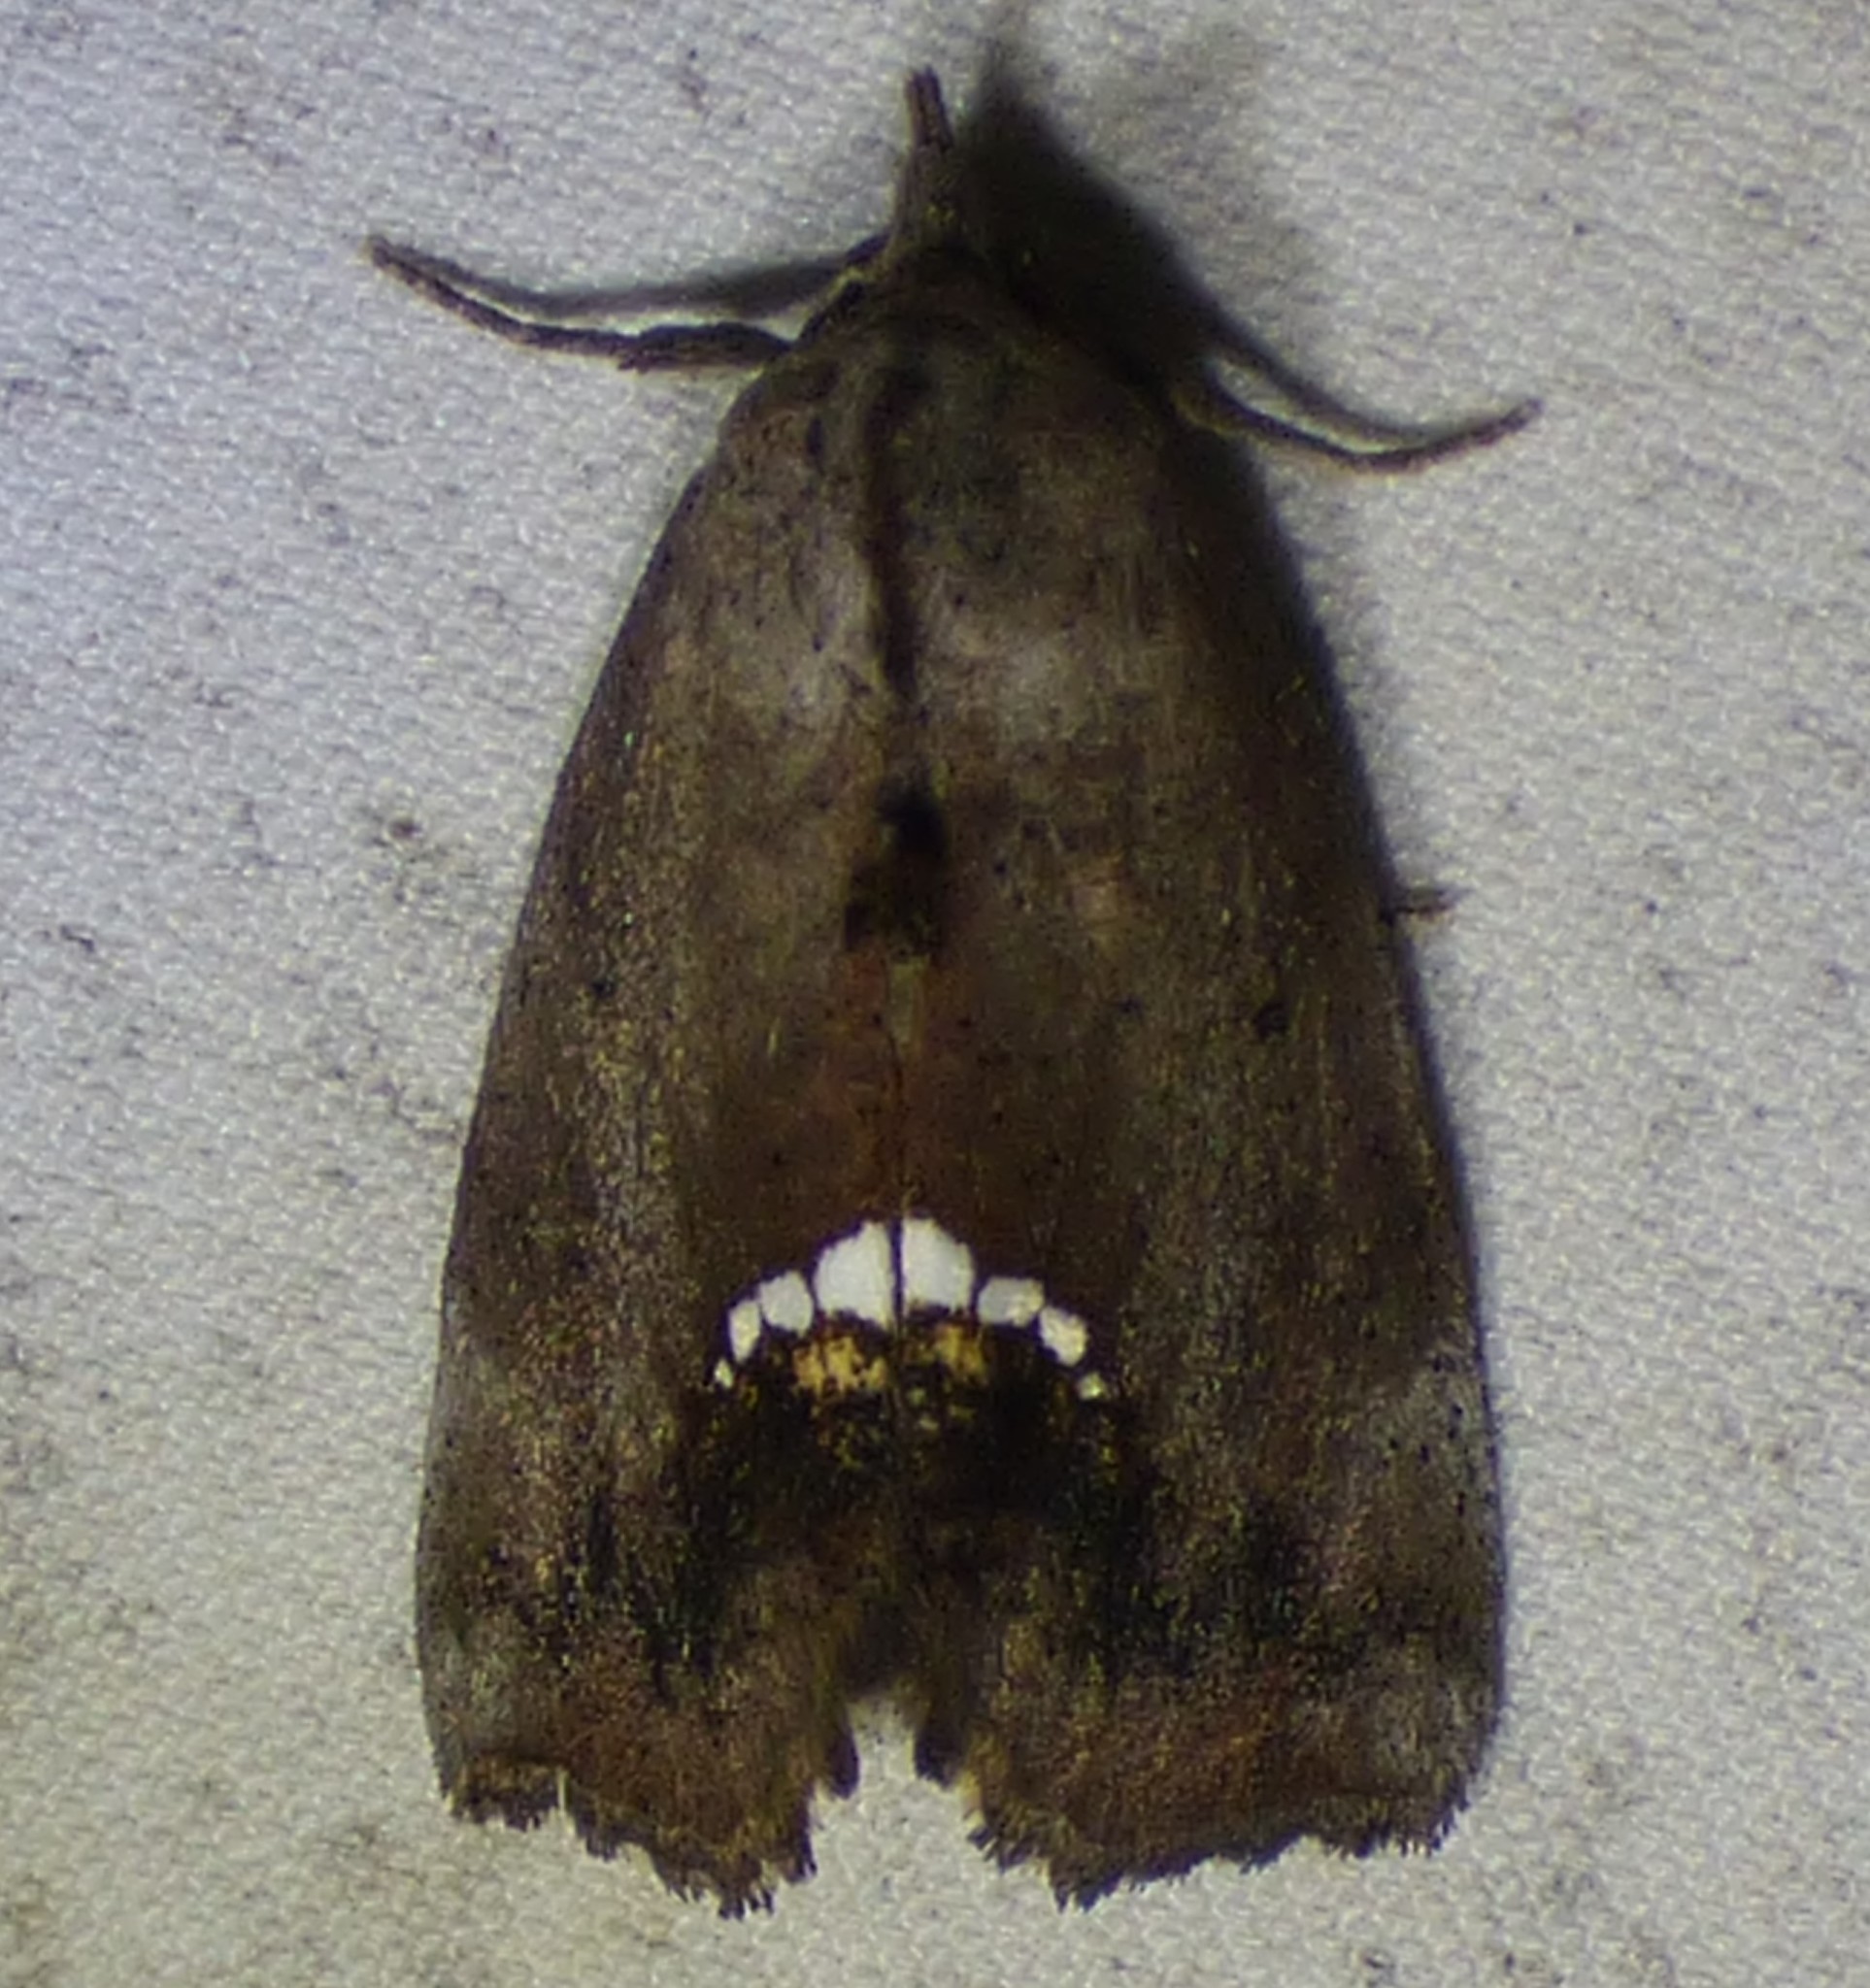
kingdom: Animalia
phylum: Arthropoda
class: Insecta
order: Lepidoptera
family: Erebidae
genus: Hypsoropha
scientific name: Hypsoropha hormos
